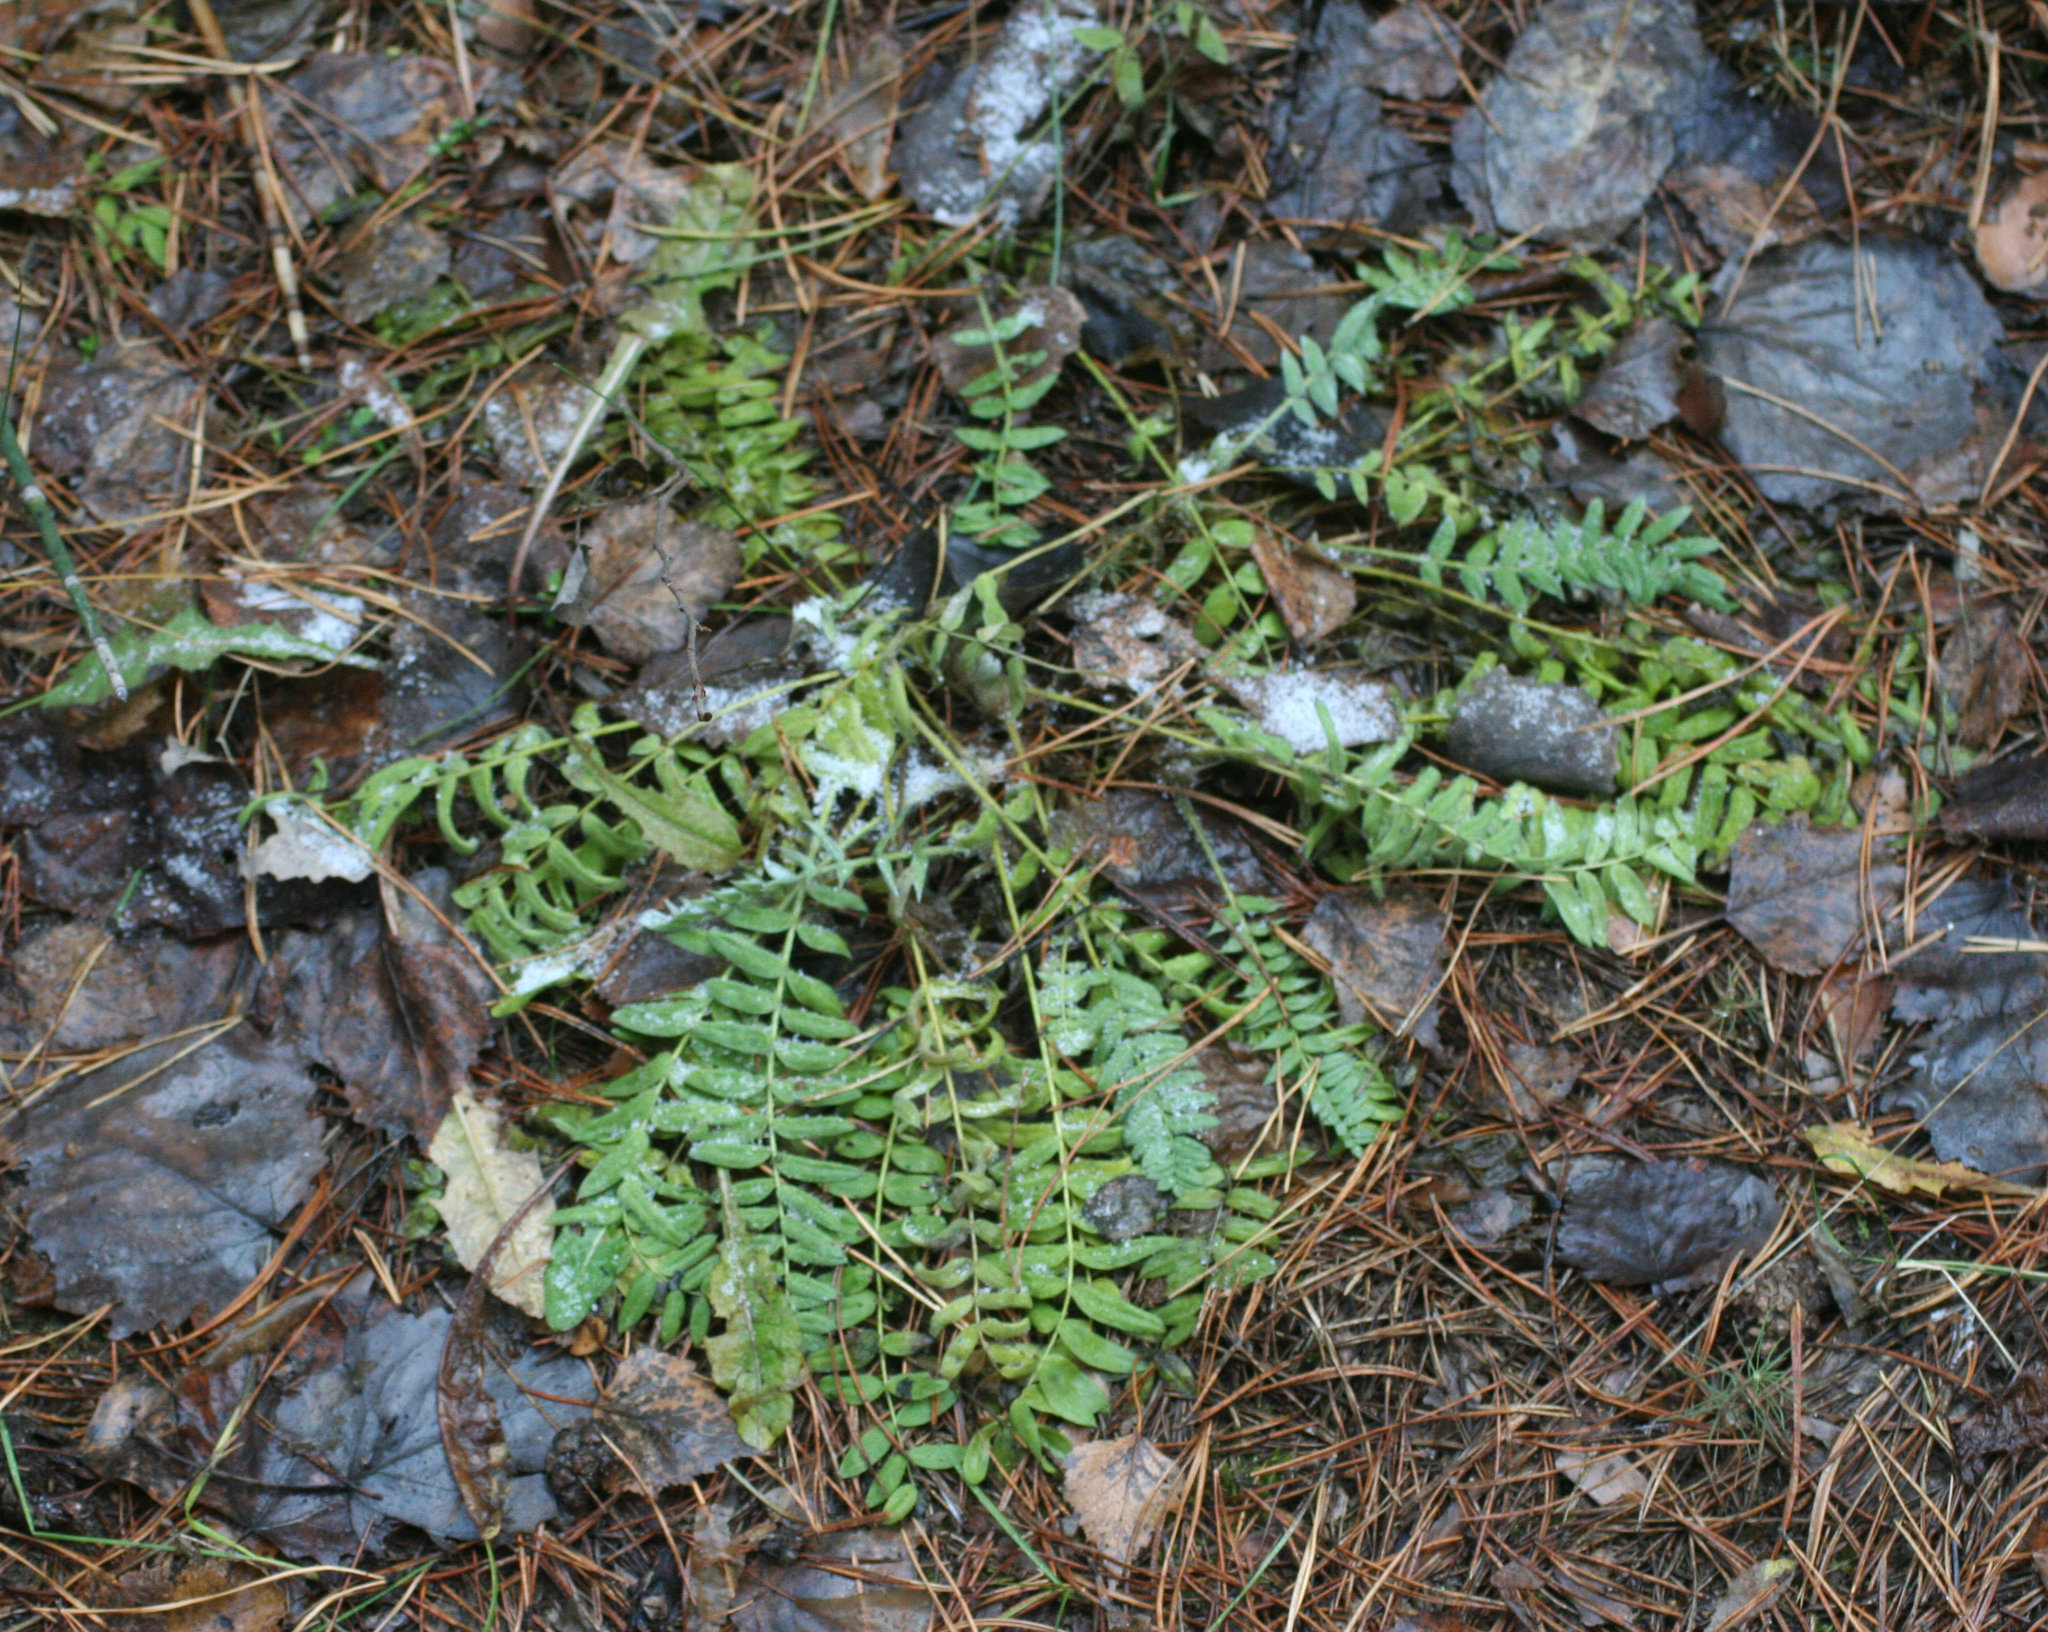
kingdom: Plantae
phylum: Tracheophyta
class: Magnoliopsida
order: Fabales
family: Fabaceae
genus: Oxytropis
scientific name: Oxytropis campanulata
